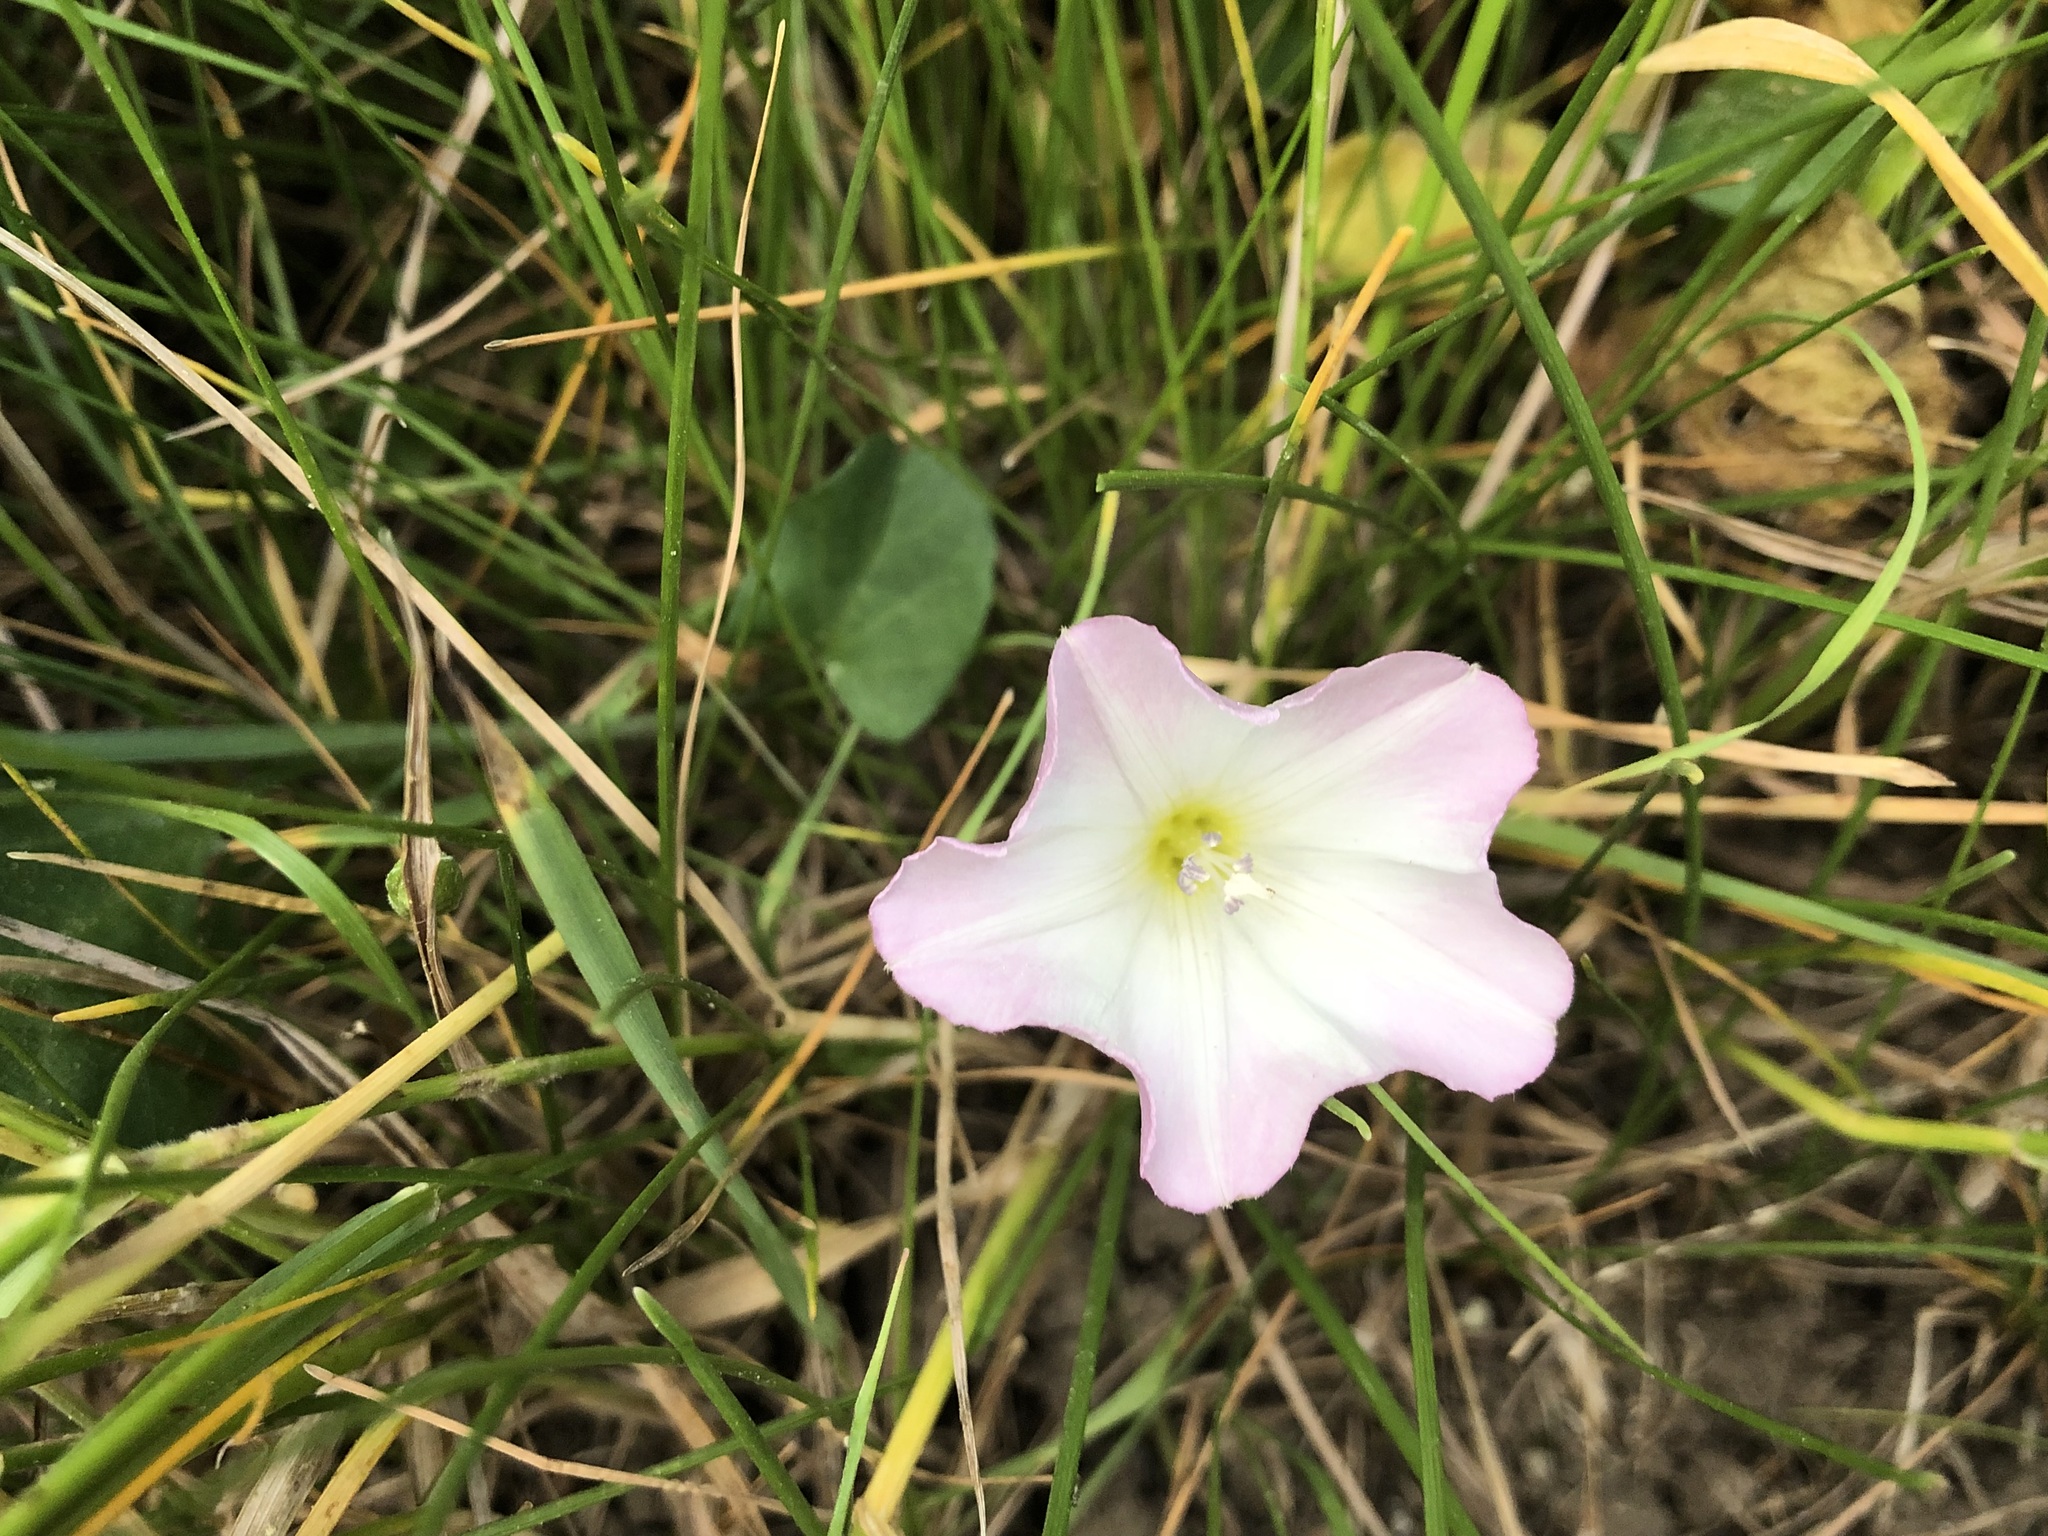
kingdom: Plantae
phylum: Tracheophyta
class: Magnoliopsida
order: Solanales
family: Convolvulaceae
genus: Convolvulus
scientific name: Convolvulus arvensis
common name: Field bindweed
